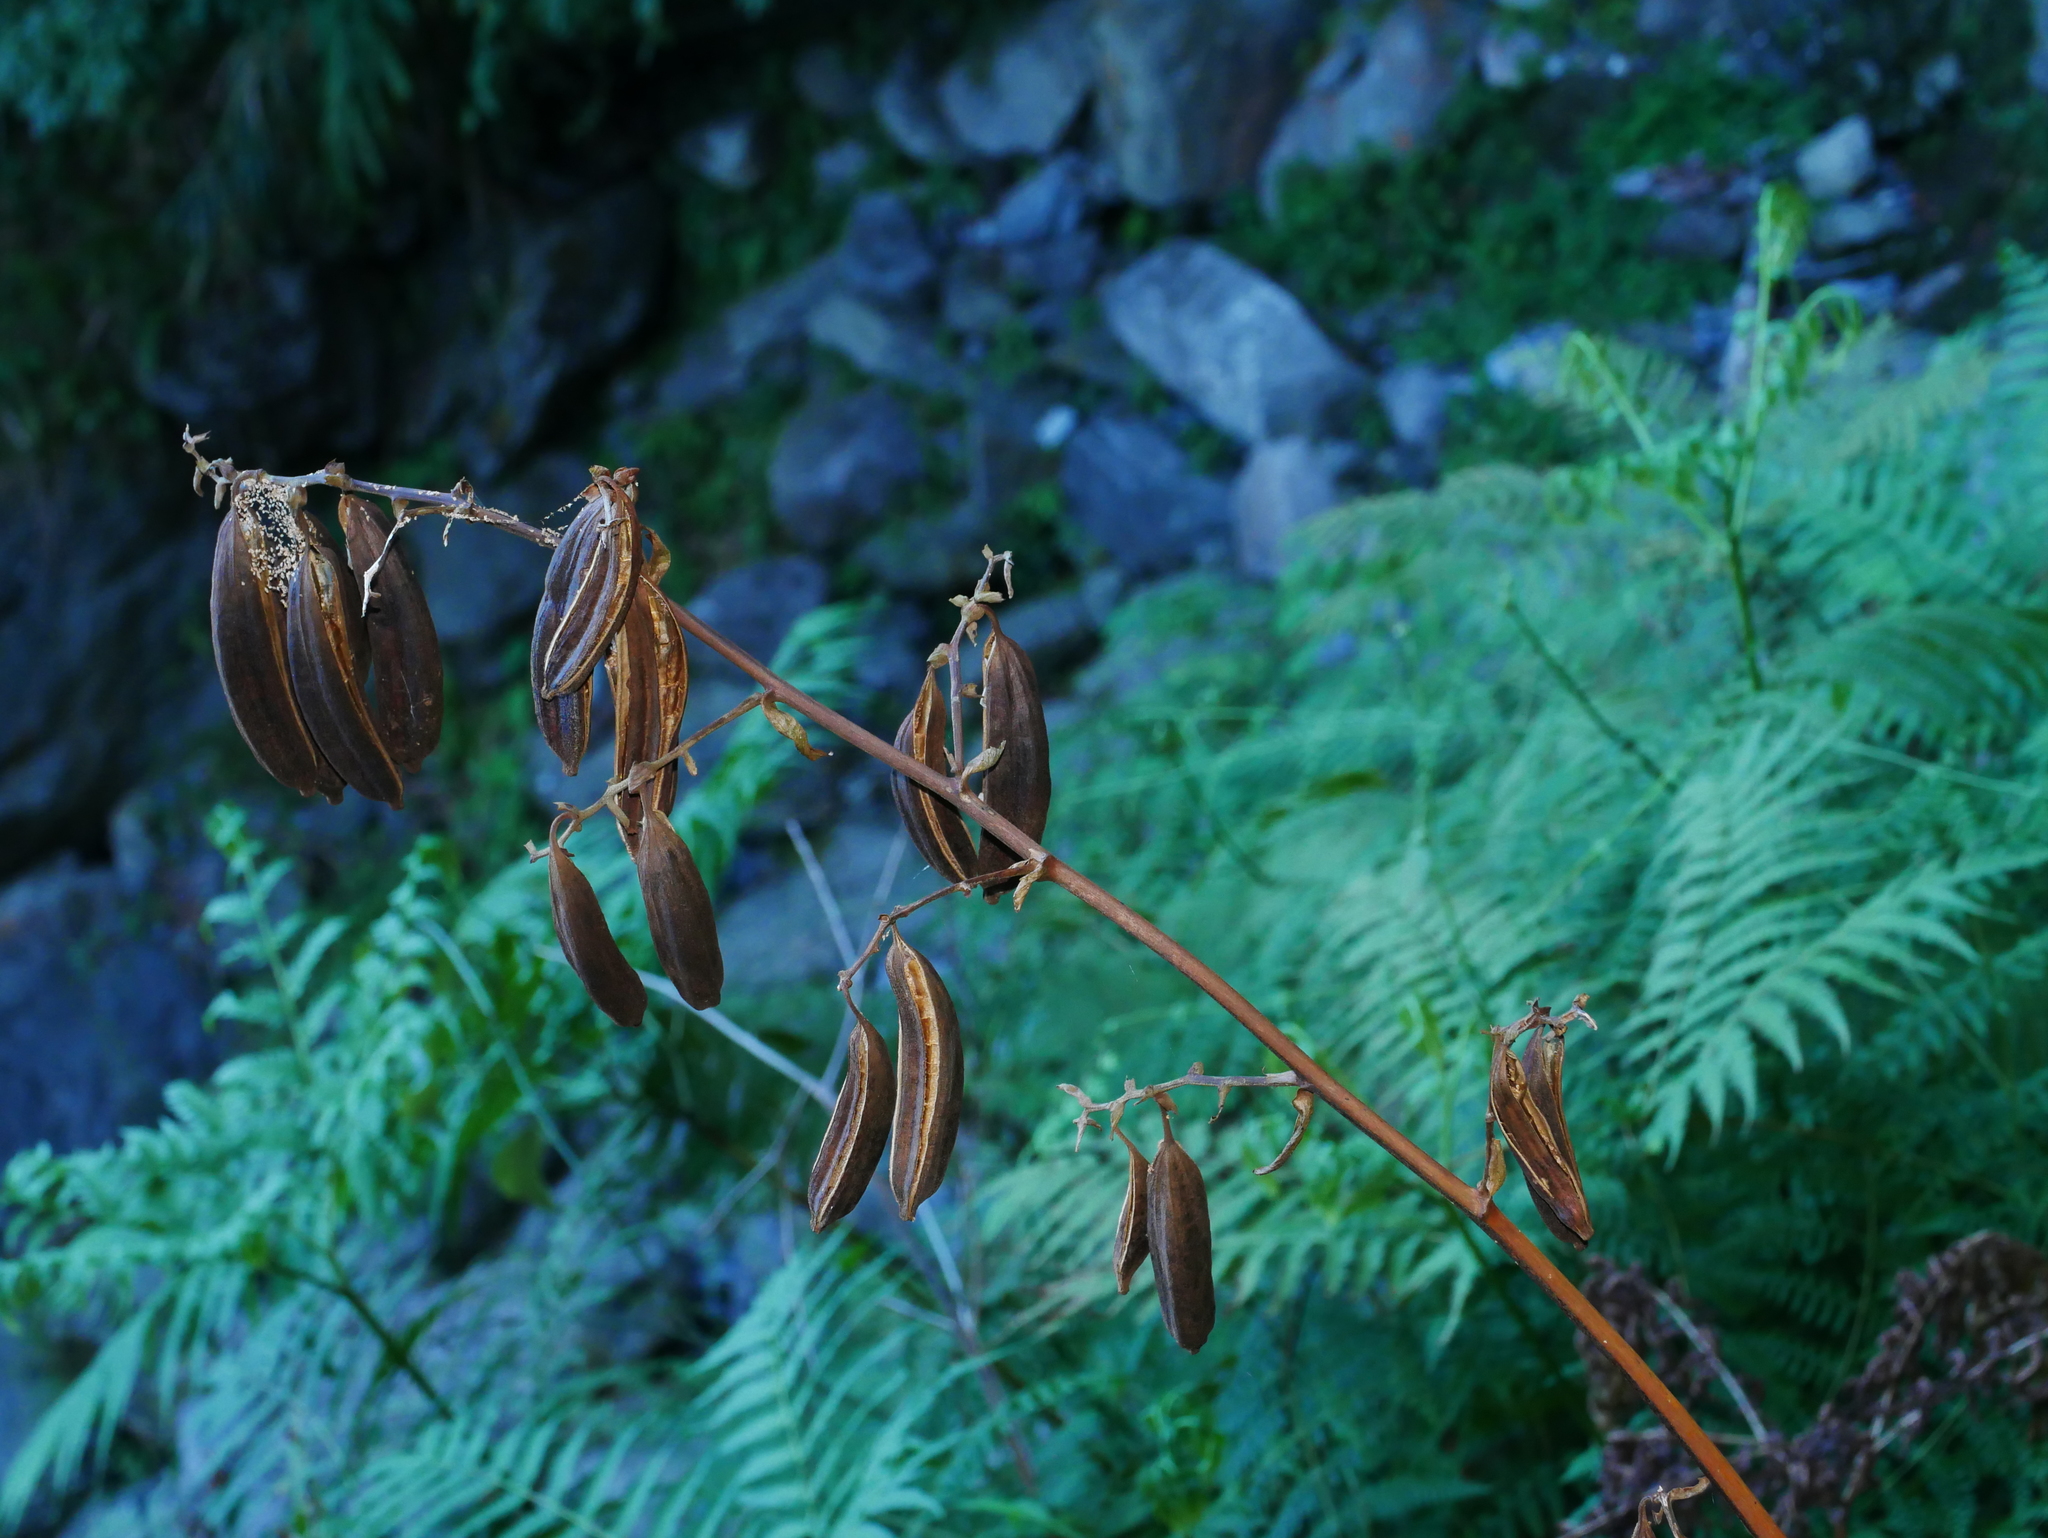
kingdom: Plantae
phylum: Tracheophyta
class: Liliopsida
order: Asparagales
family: Orchidaceae
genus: Cyrtosia
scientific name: Cyrtosia falconeri
